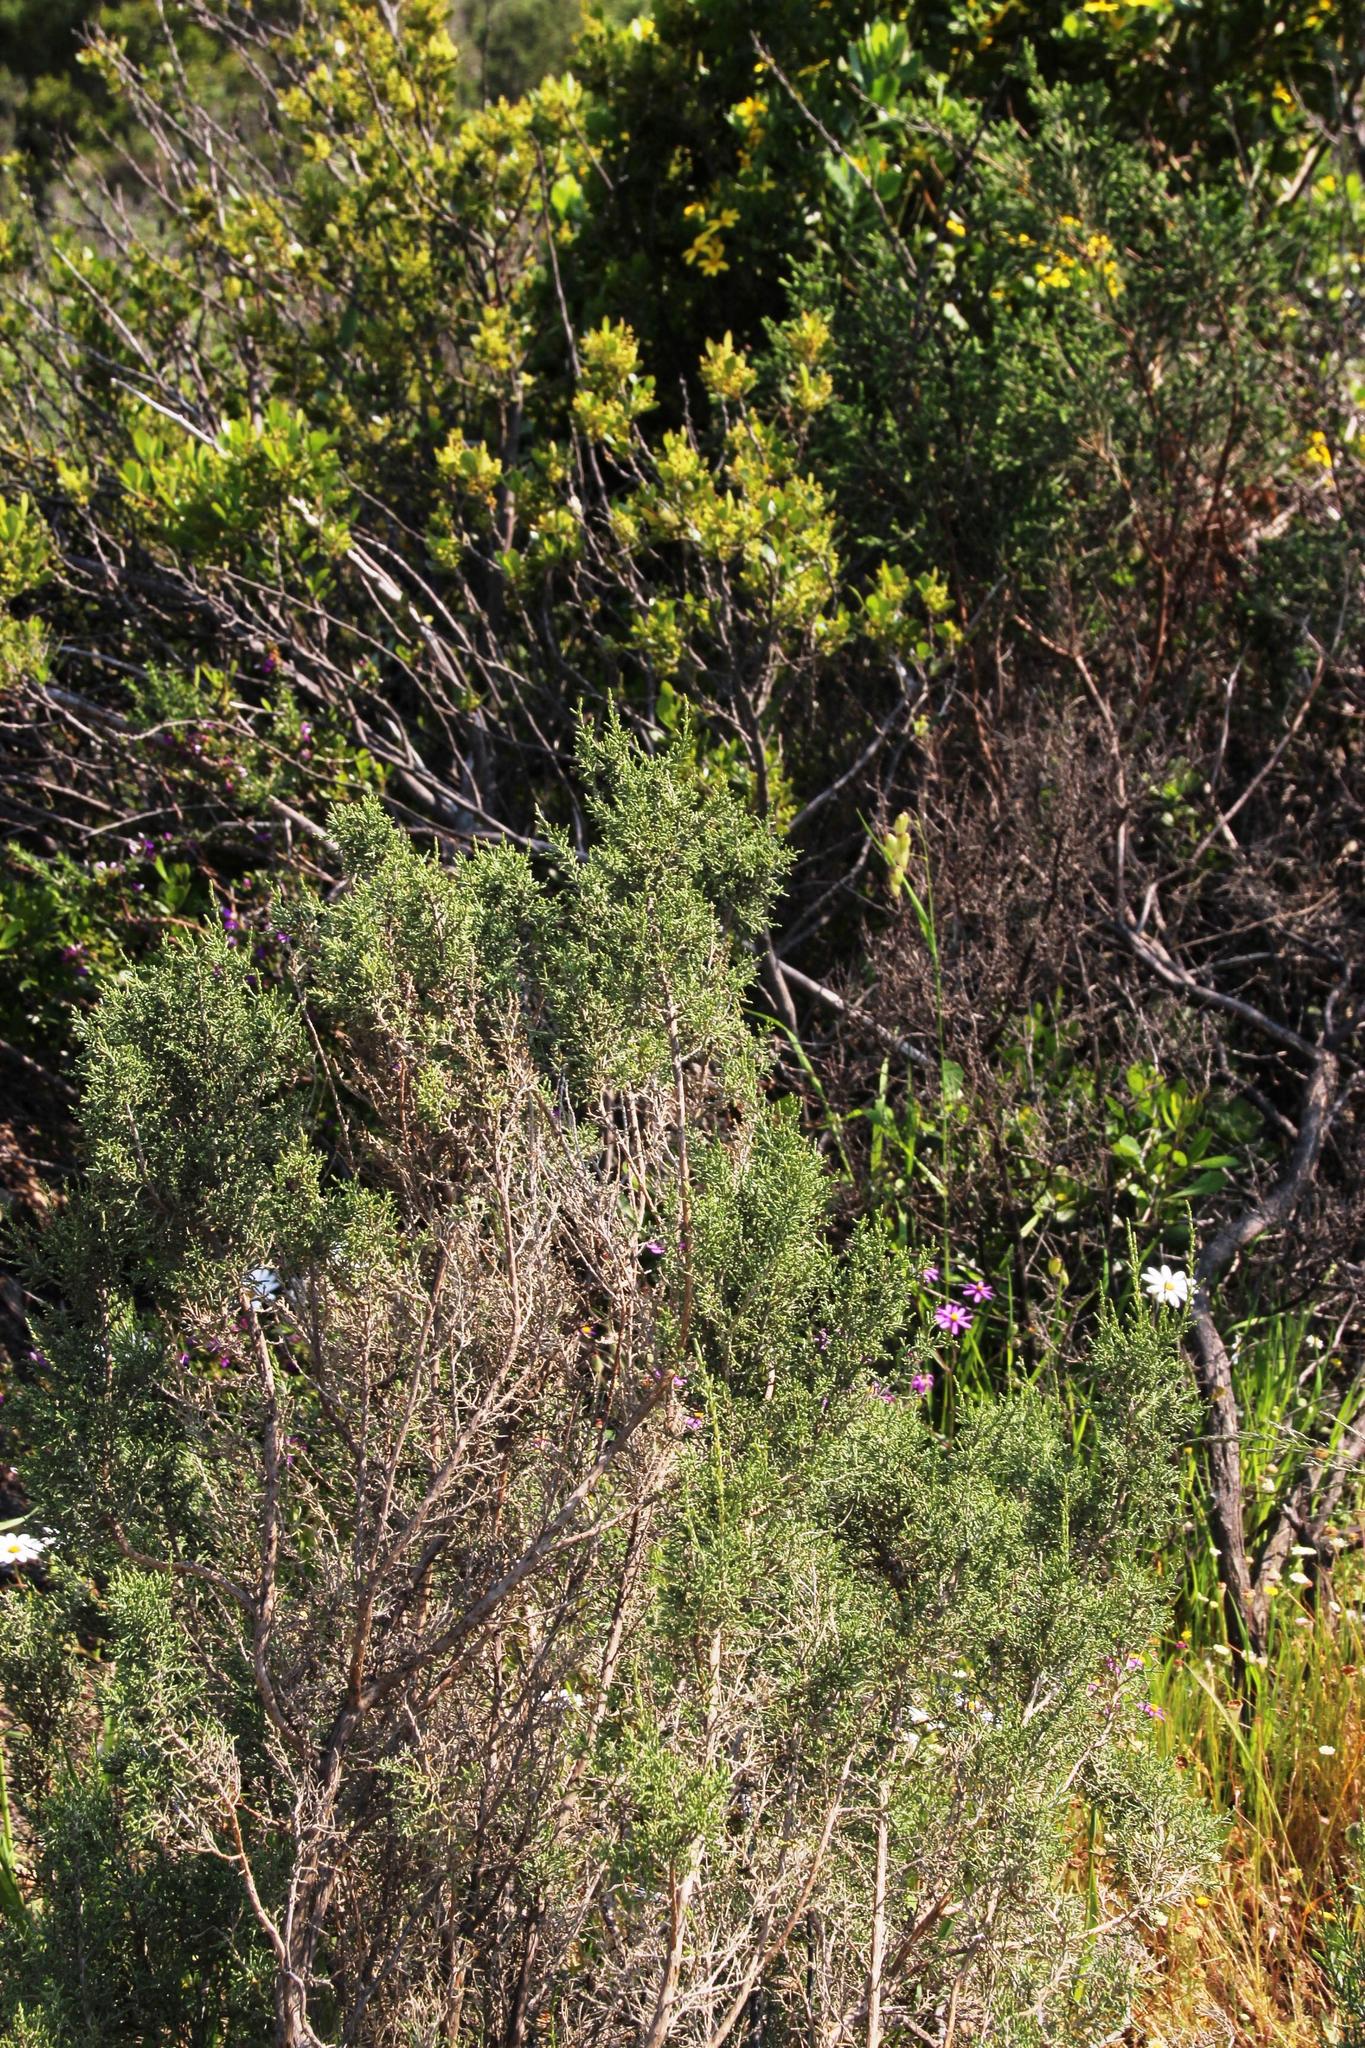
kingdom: Plantae
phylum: Tracheophyta
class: Magnoliopsida
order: Asterales
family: Asteraceae
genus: Dicerothamnus
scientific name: Dicerothamnus rhinocerotis
